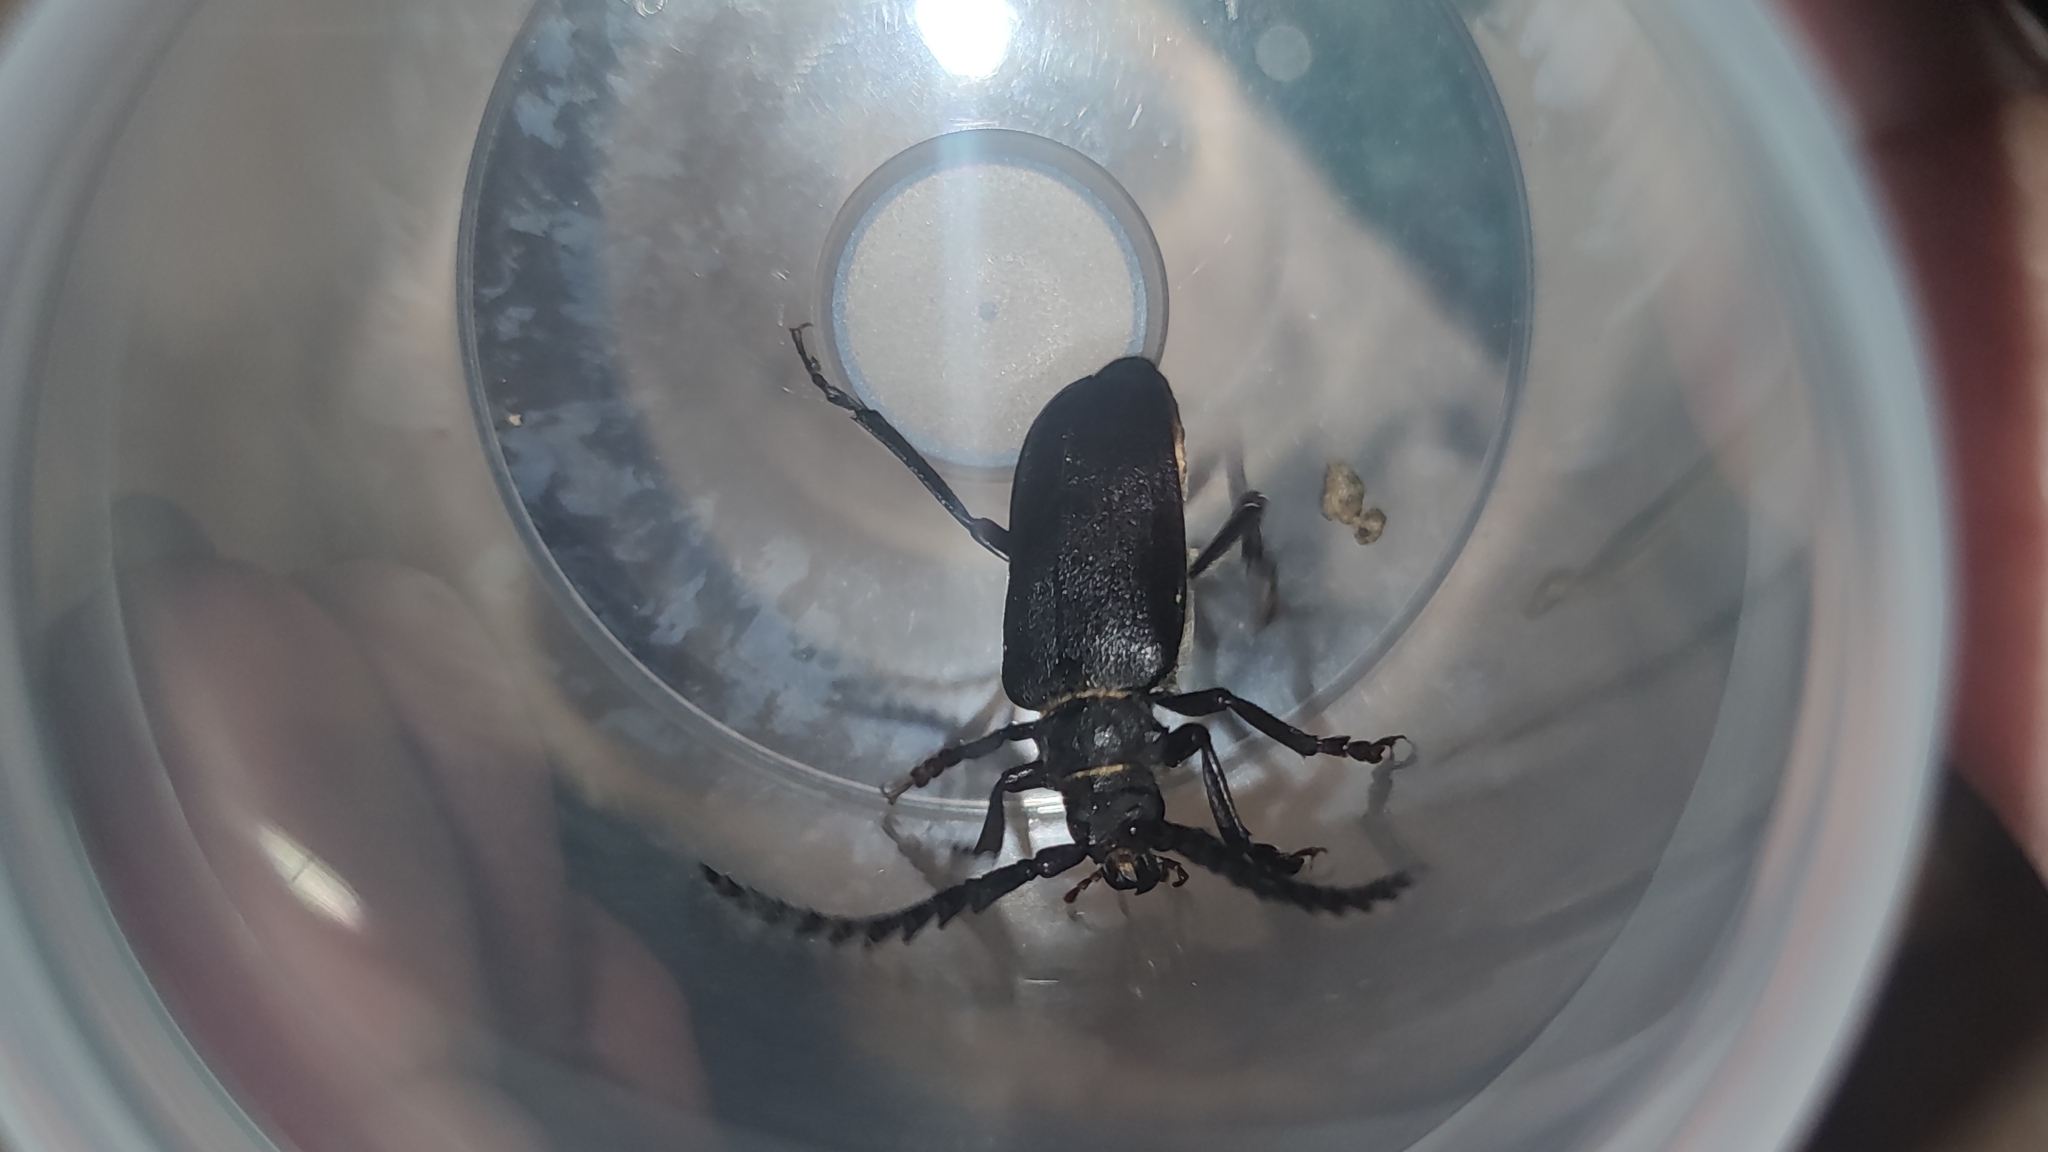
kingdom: Animalia
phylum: Arthropoda
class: Insecta
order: Coleoptera
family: Cerambycidae
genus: Prionus
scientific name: Prionus coriarius
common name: Tanner beetle
